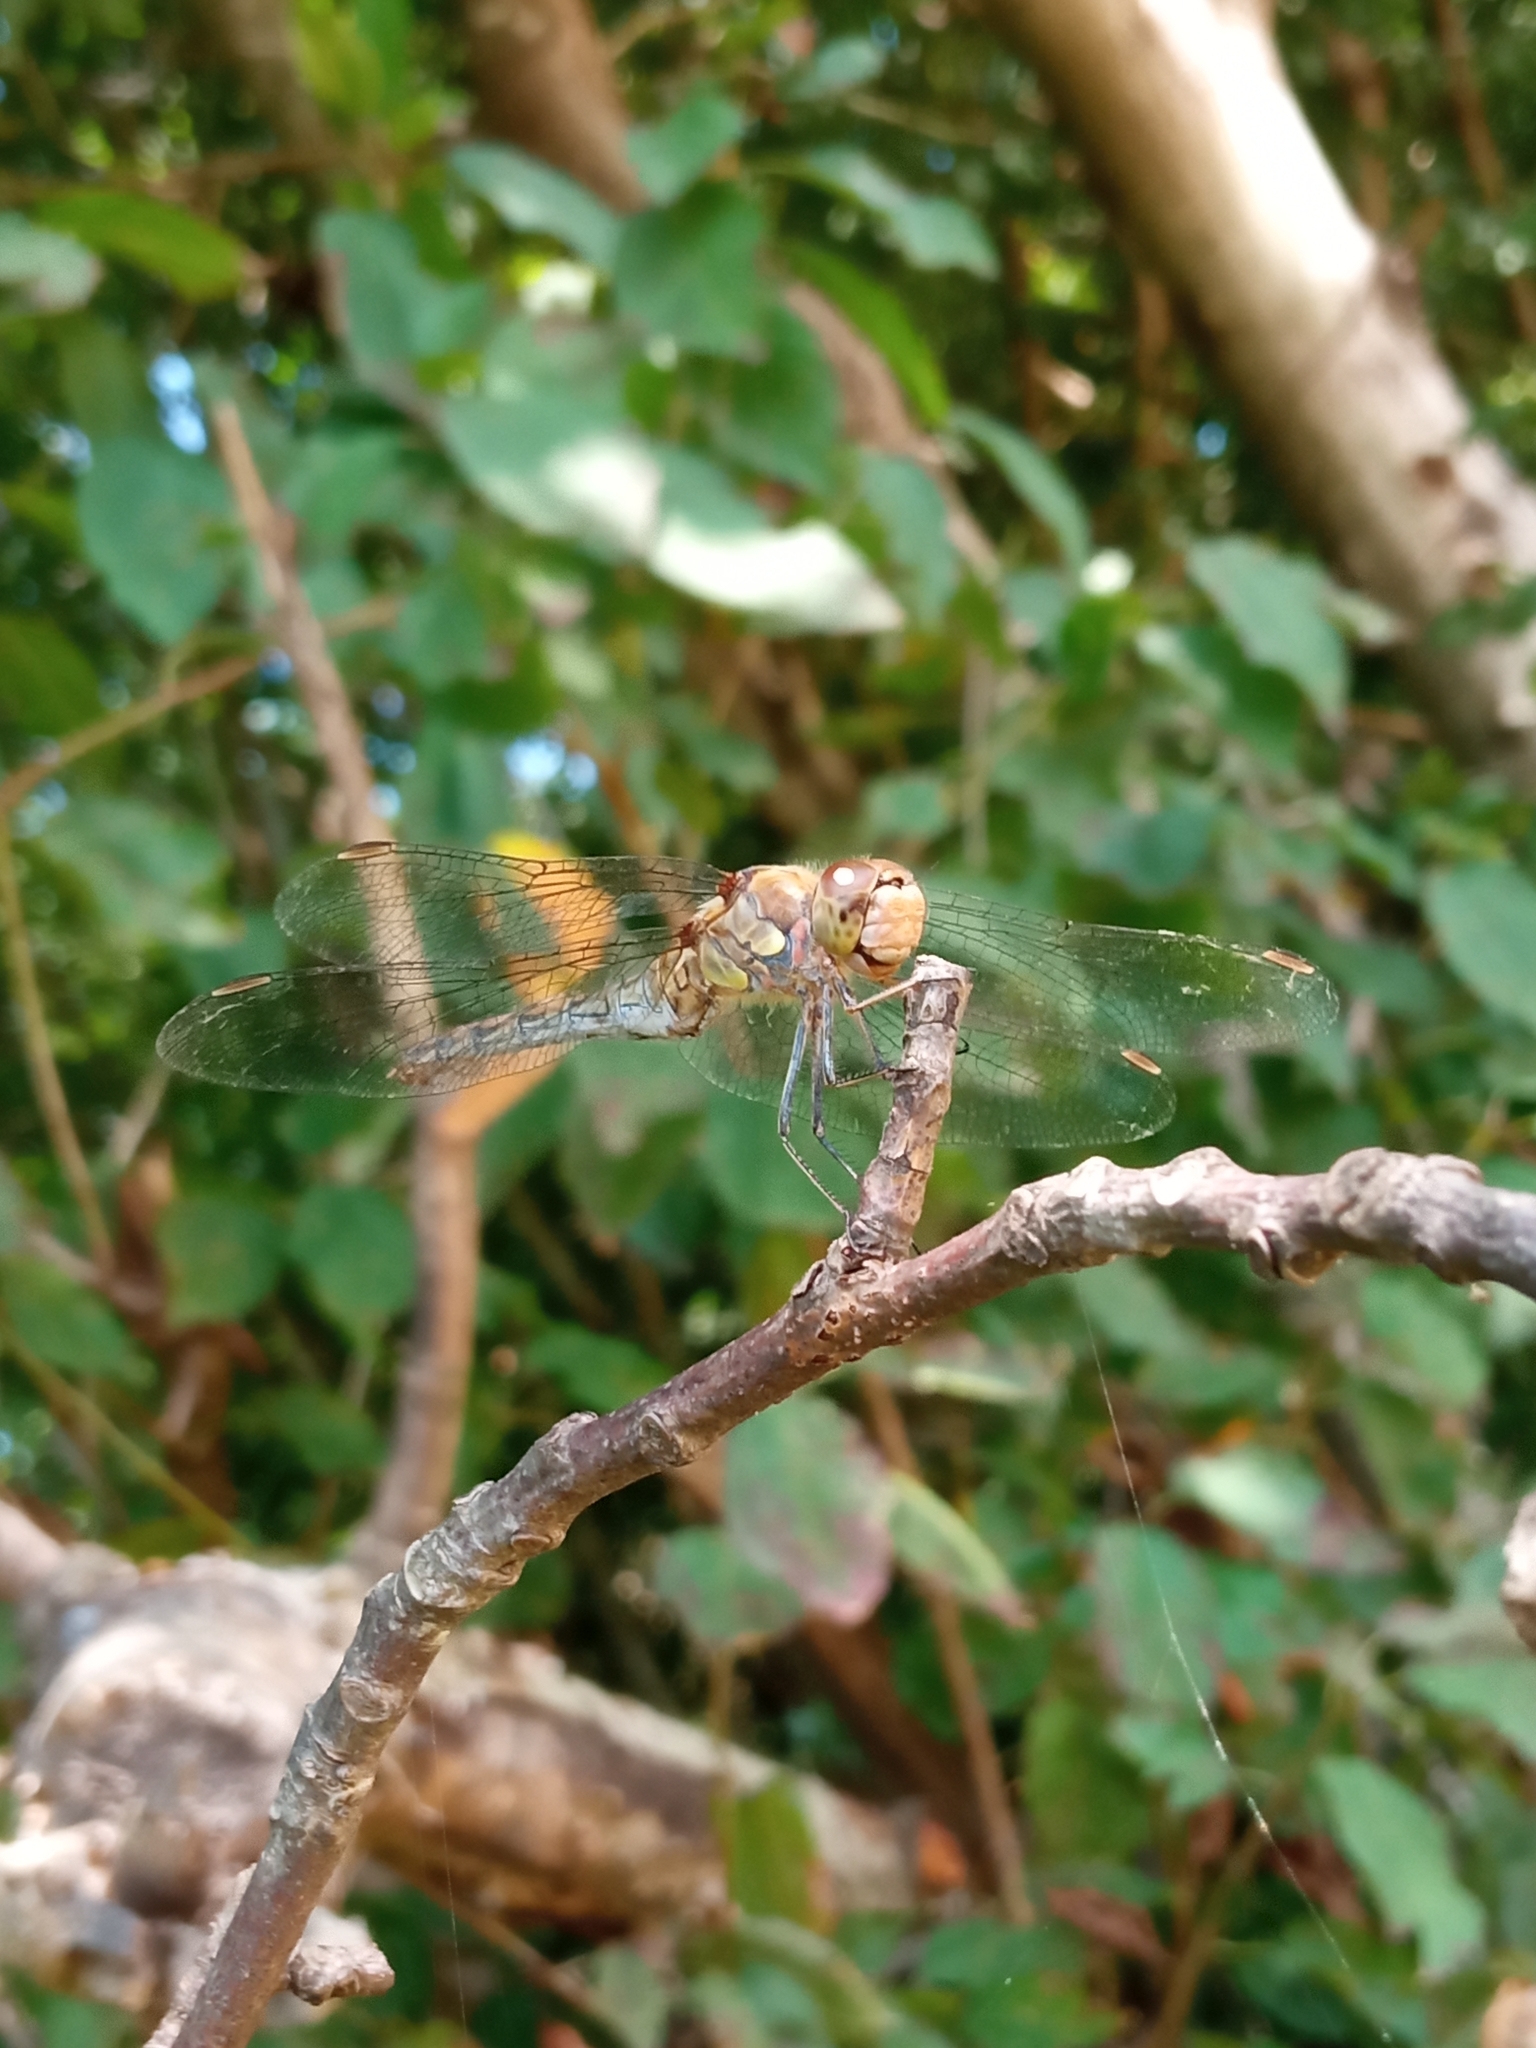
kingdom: Animalia
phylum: Arthropoda
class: Insecta
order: Odonata
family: Libellulidae
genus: Sympetrum
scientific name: Sympetrum striolatum
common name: Common darter
